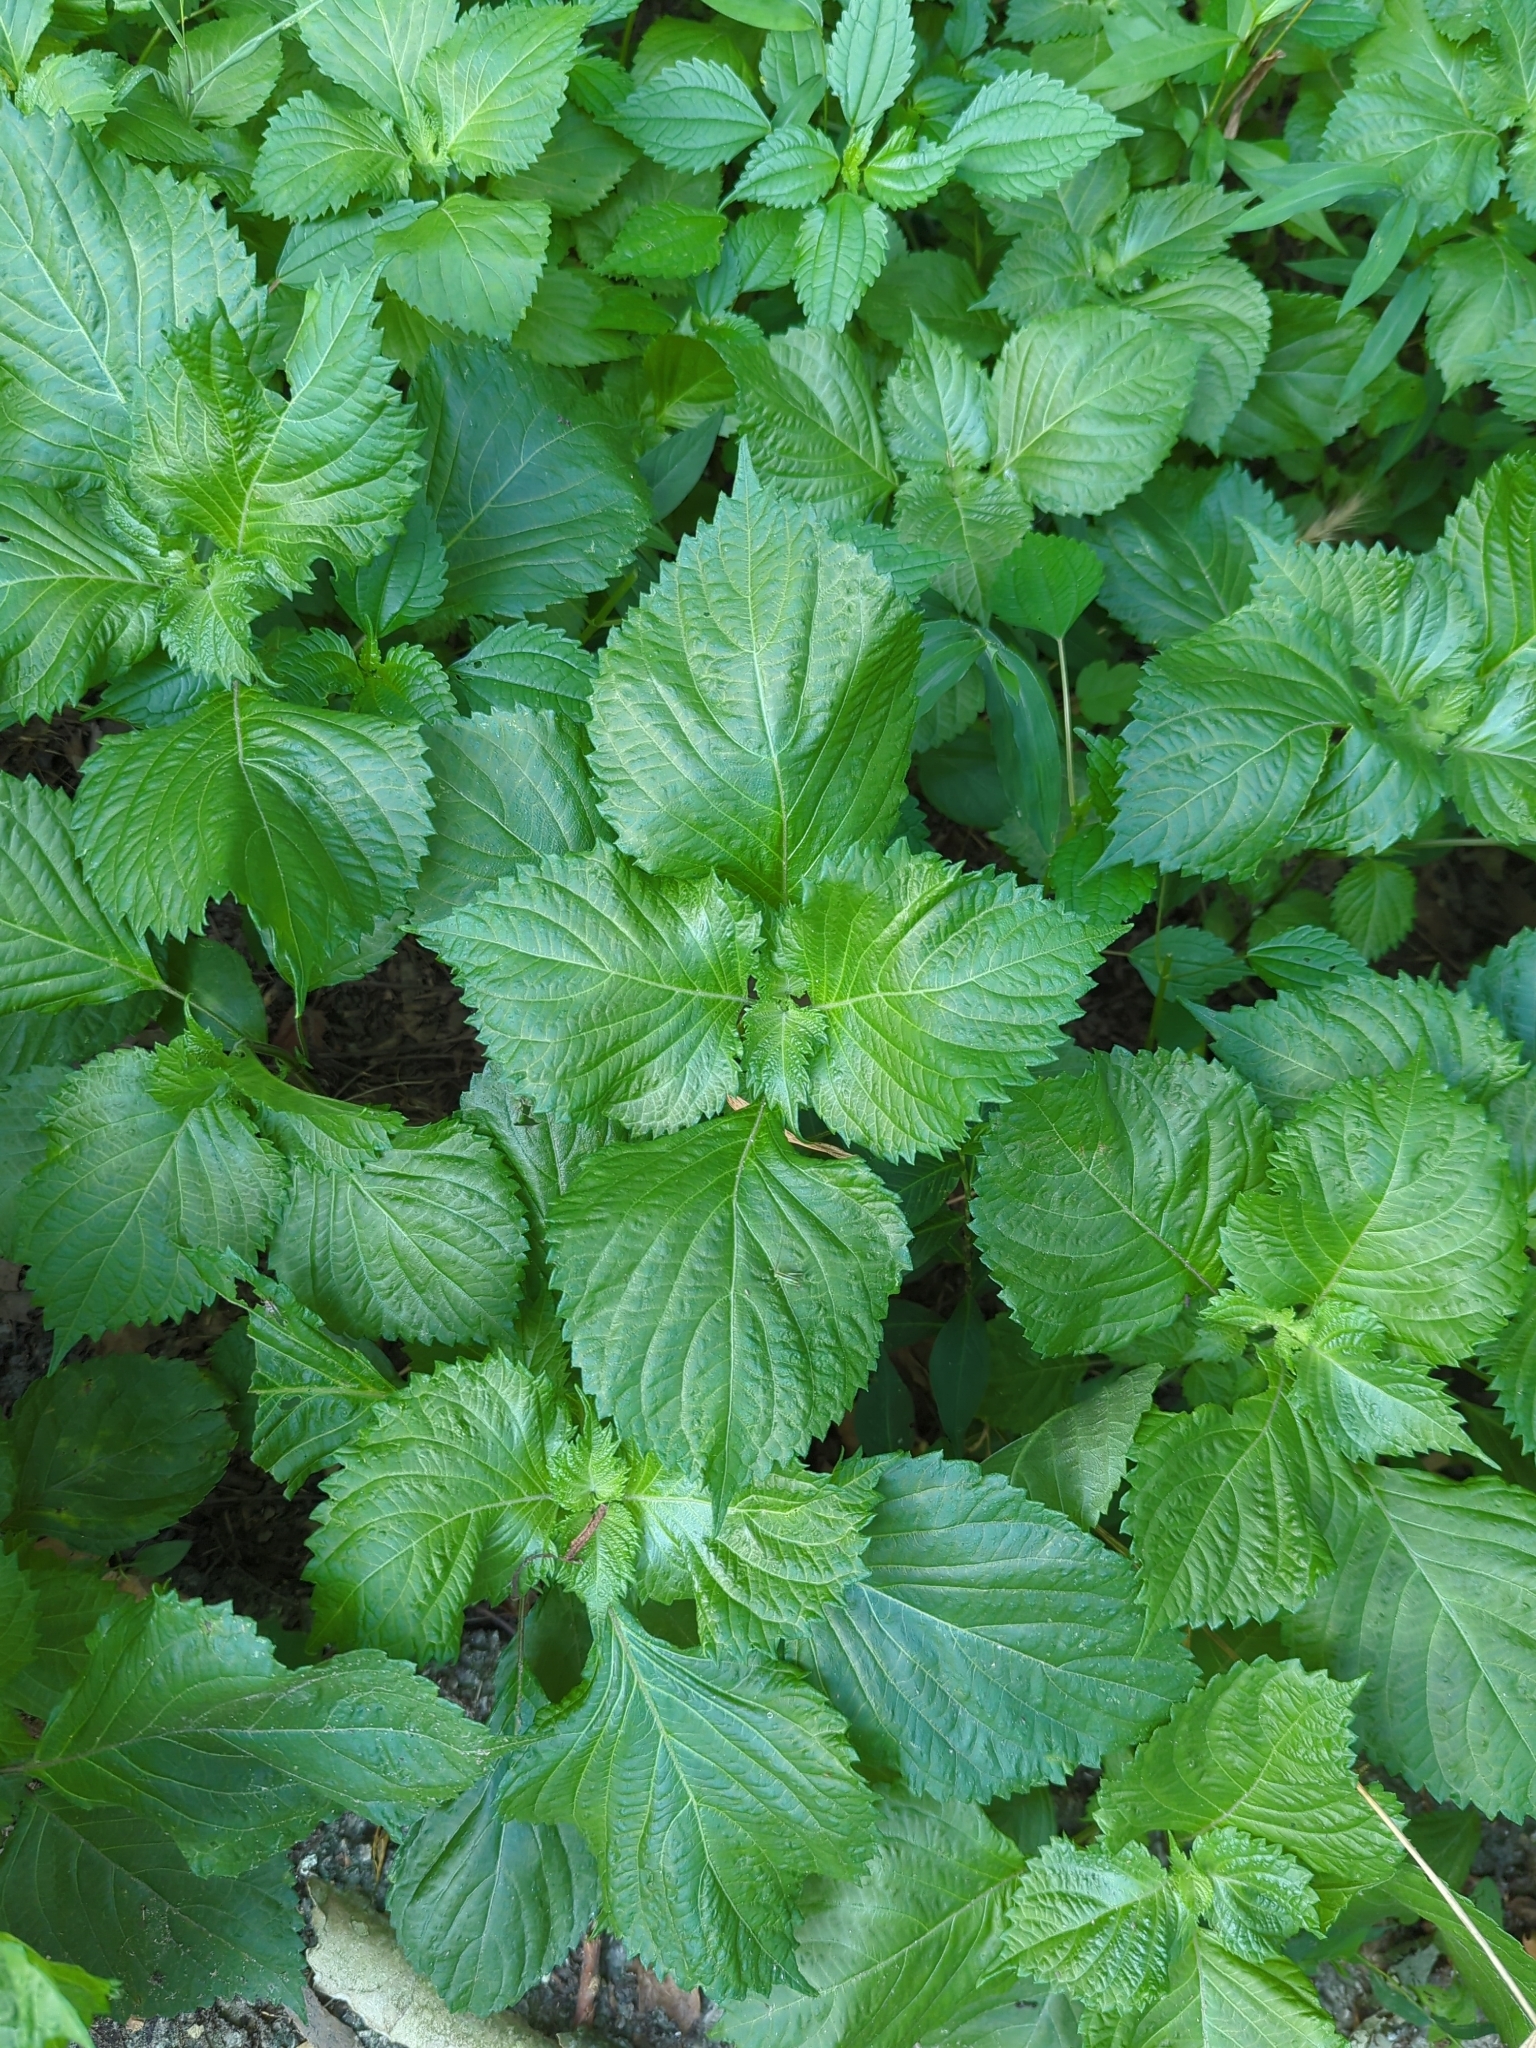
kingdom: Plantae
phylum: Tracheophyta
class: Magnoliopsida
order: Lamiales
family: Lamiaceae
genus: Perilla
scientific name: Perilla frutescens
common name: Perilla
